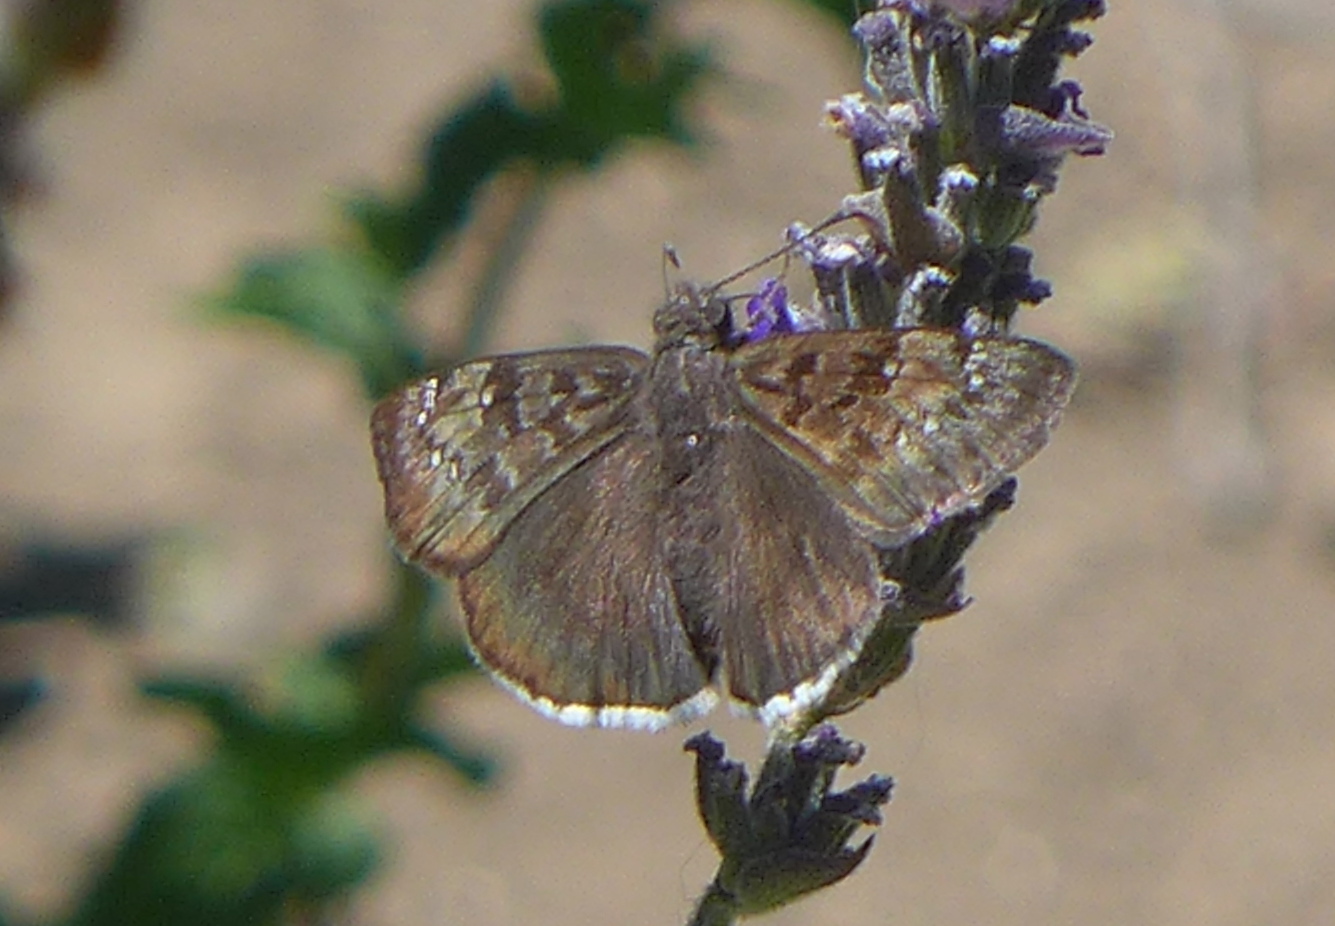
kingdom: Animalia
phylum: Arthropoda
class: Insecta
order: Lepidoptera
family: Hesperiidae
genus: Erynnis
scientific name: Erynnis tristis
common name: Mournful duskywing
